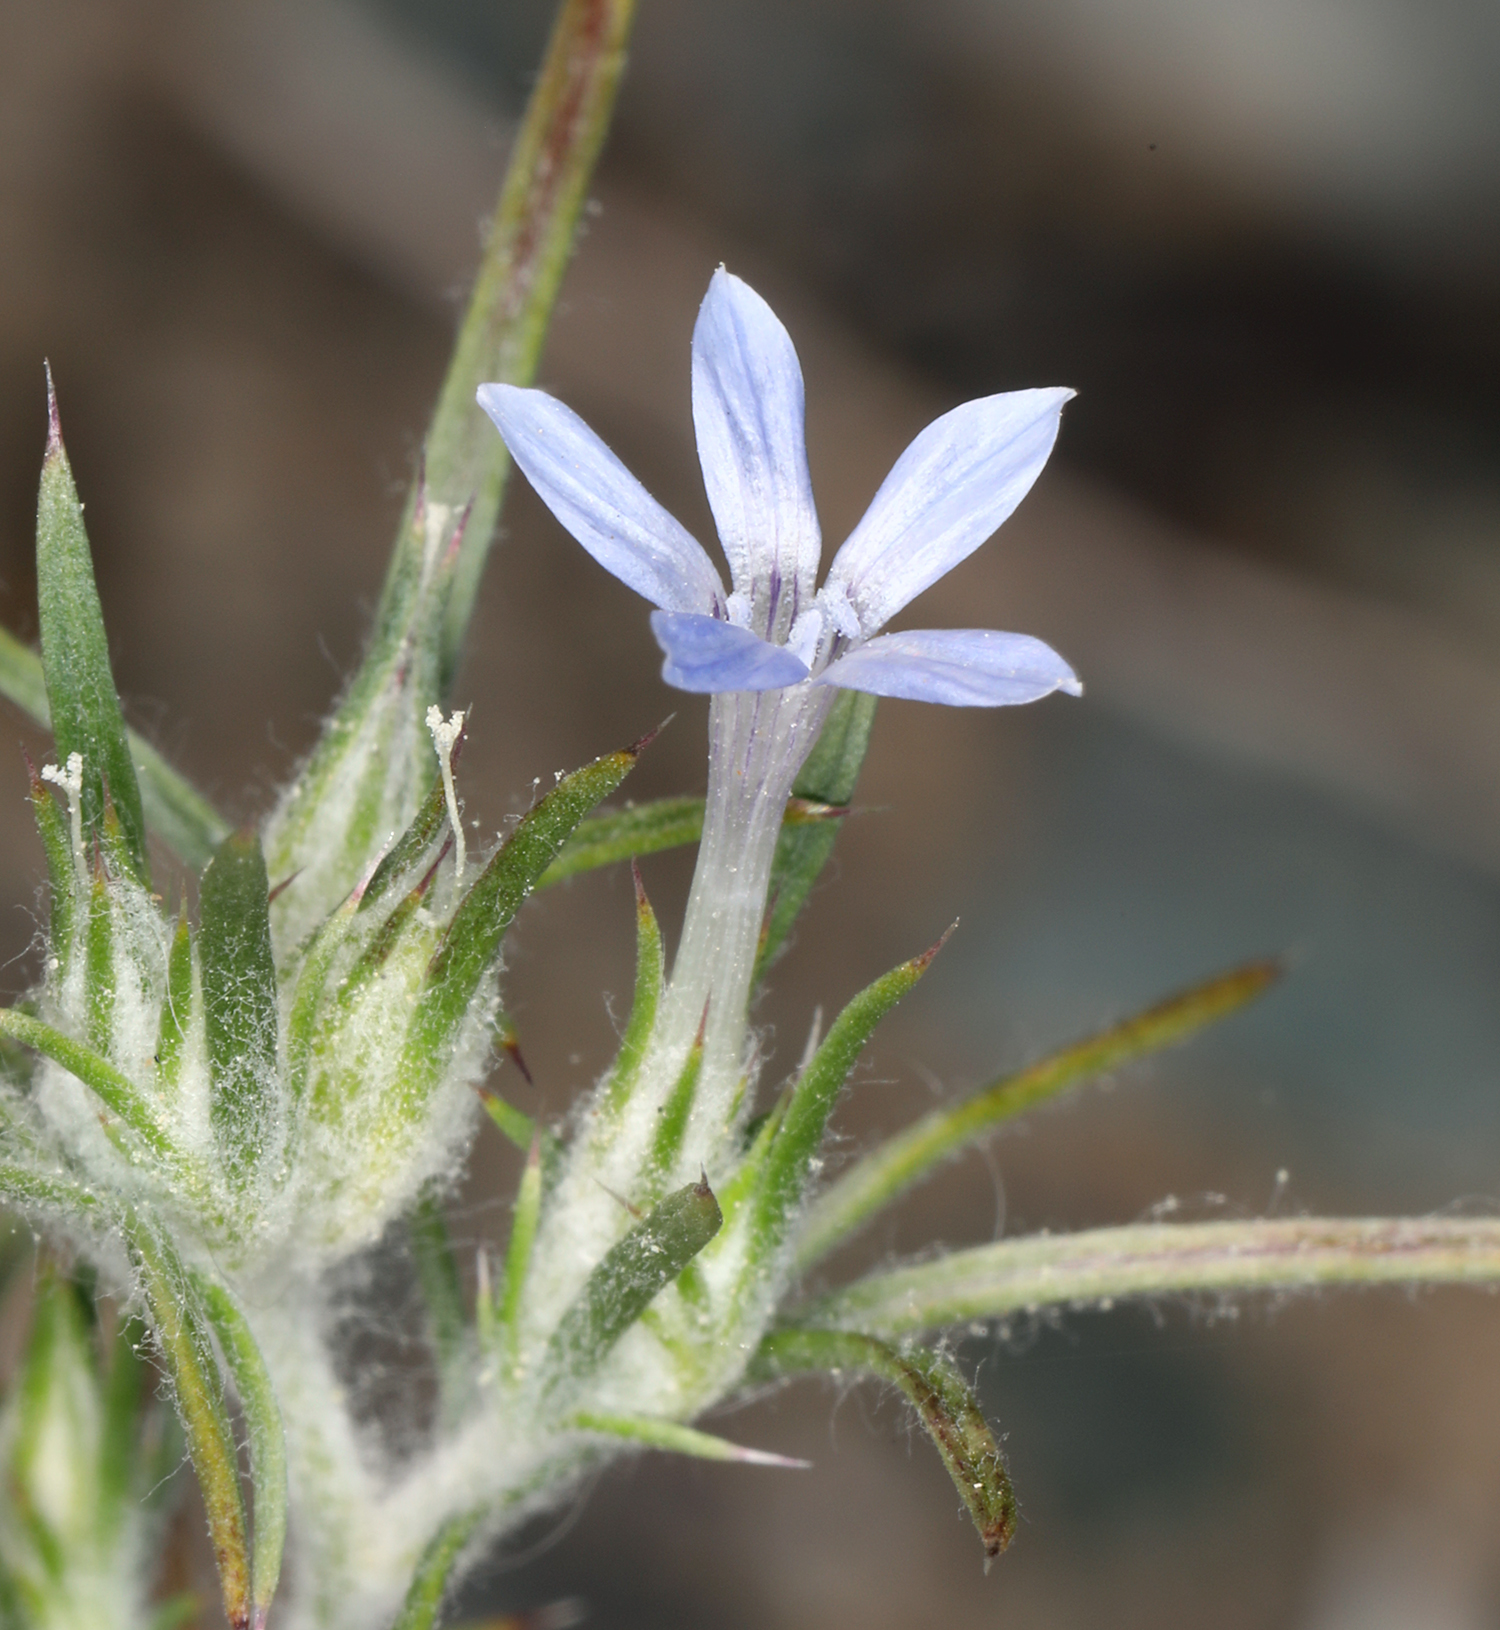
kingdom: Plantae
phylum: Tracheophyta
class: Magnoliopsida
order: Ericales
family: Polemoniaceae
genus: Eriastrum
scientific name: Eriastrum wilcoxii
